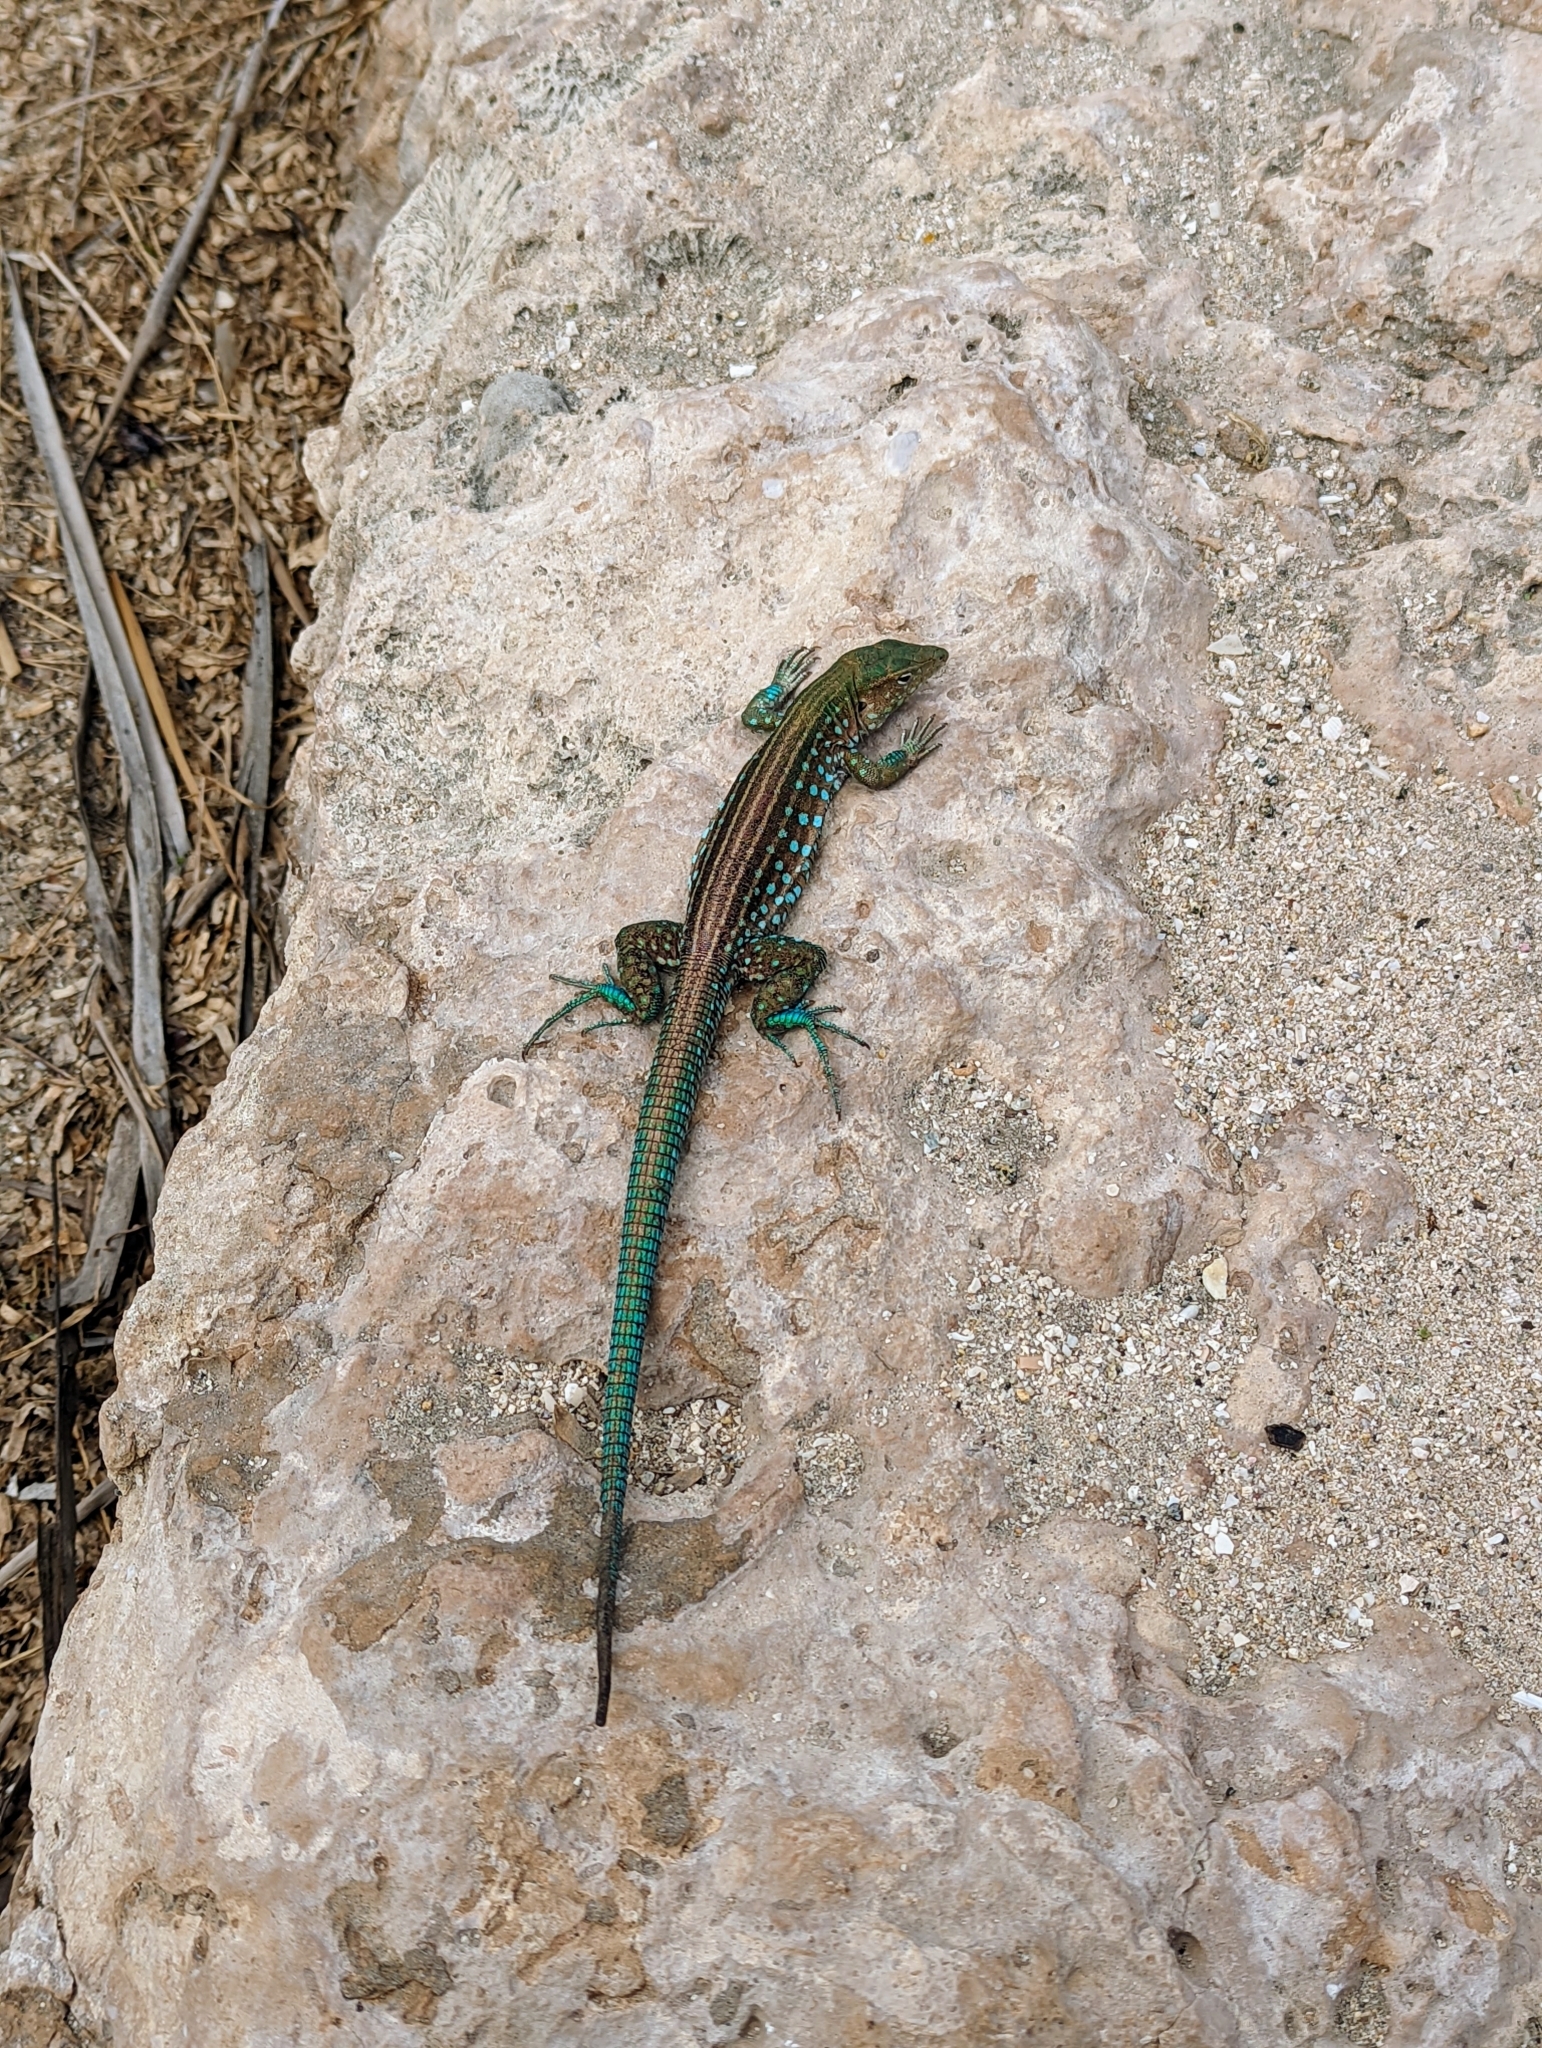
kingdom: Animalia
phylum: Chordata
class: Squamata
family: Teiidae
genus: Cnemidophorus
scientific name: Cnemidophorus arubensis
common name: Aruba whiptail
